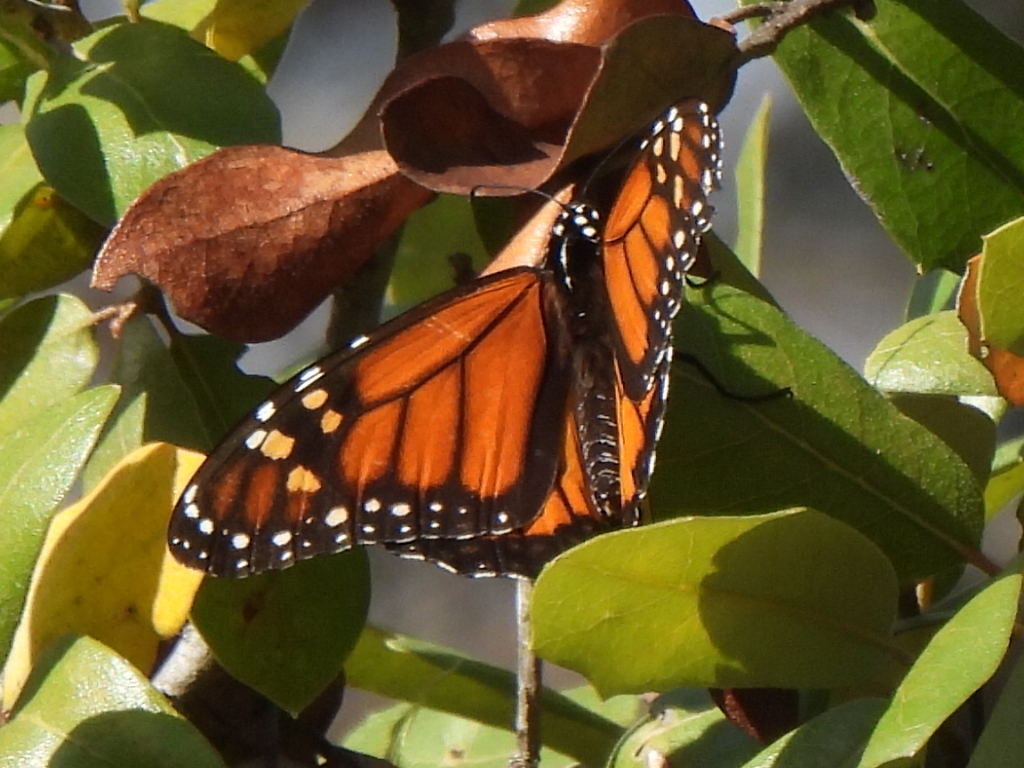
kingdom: Animalia
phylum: Arthropoda
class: Insecta
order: Lepidoptera
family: Nymphalidae
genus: Danaus
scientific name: Danaus plexippus
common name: Monarch
